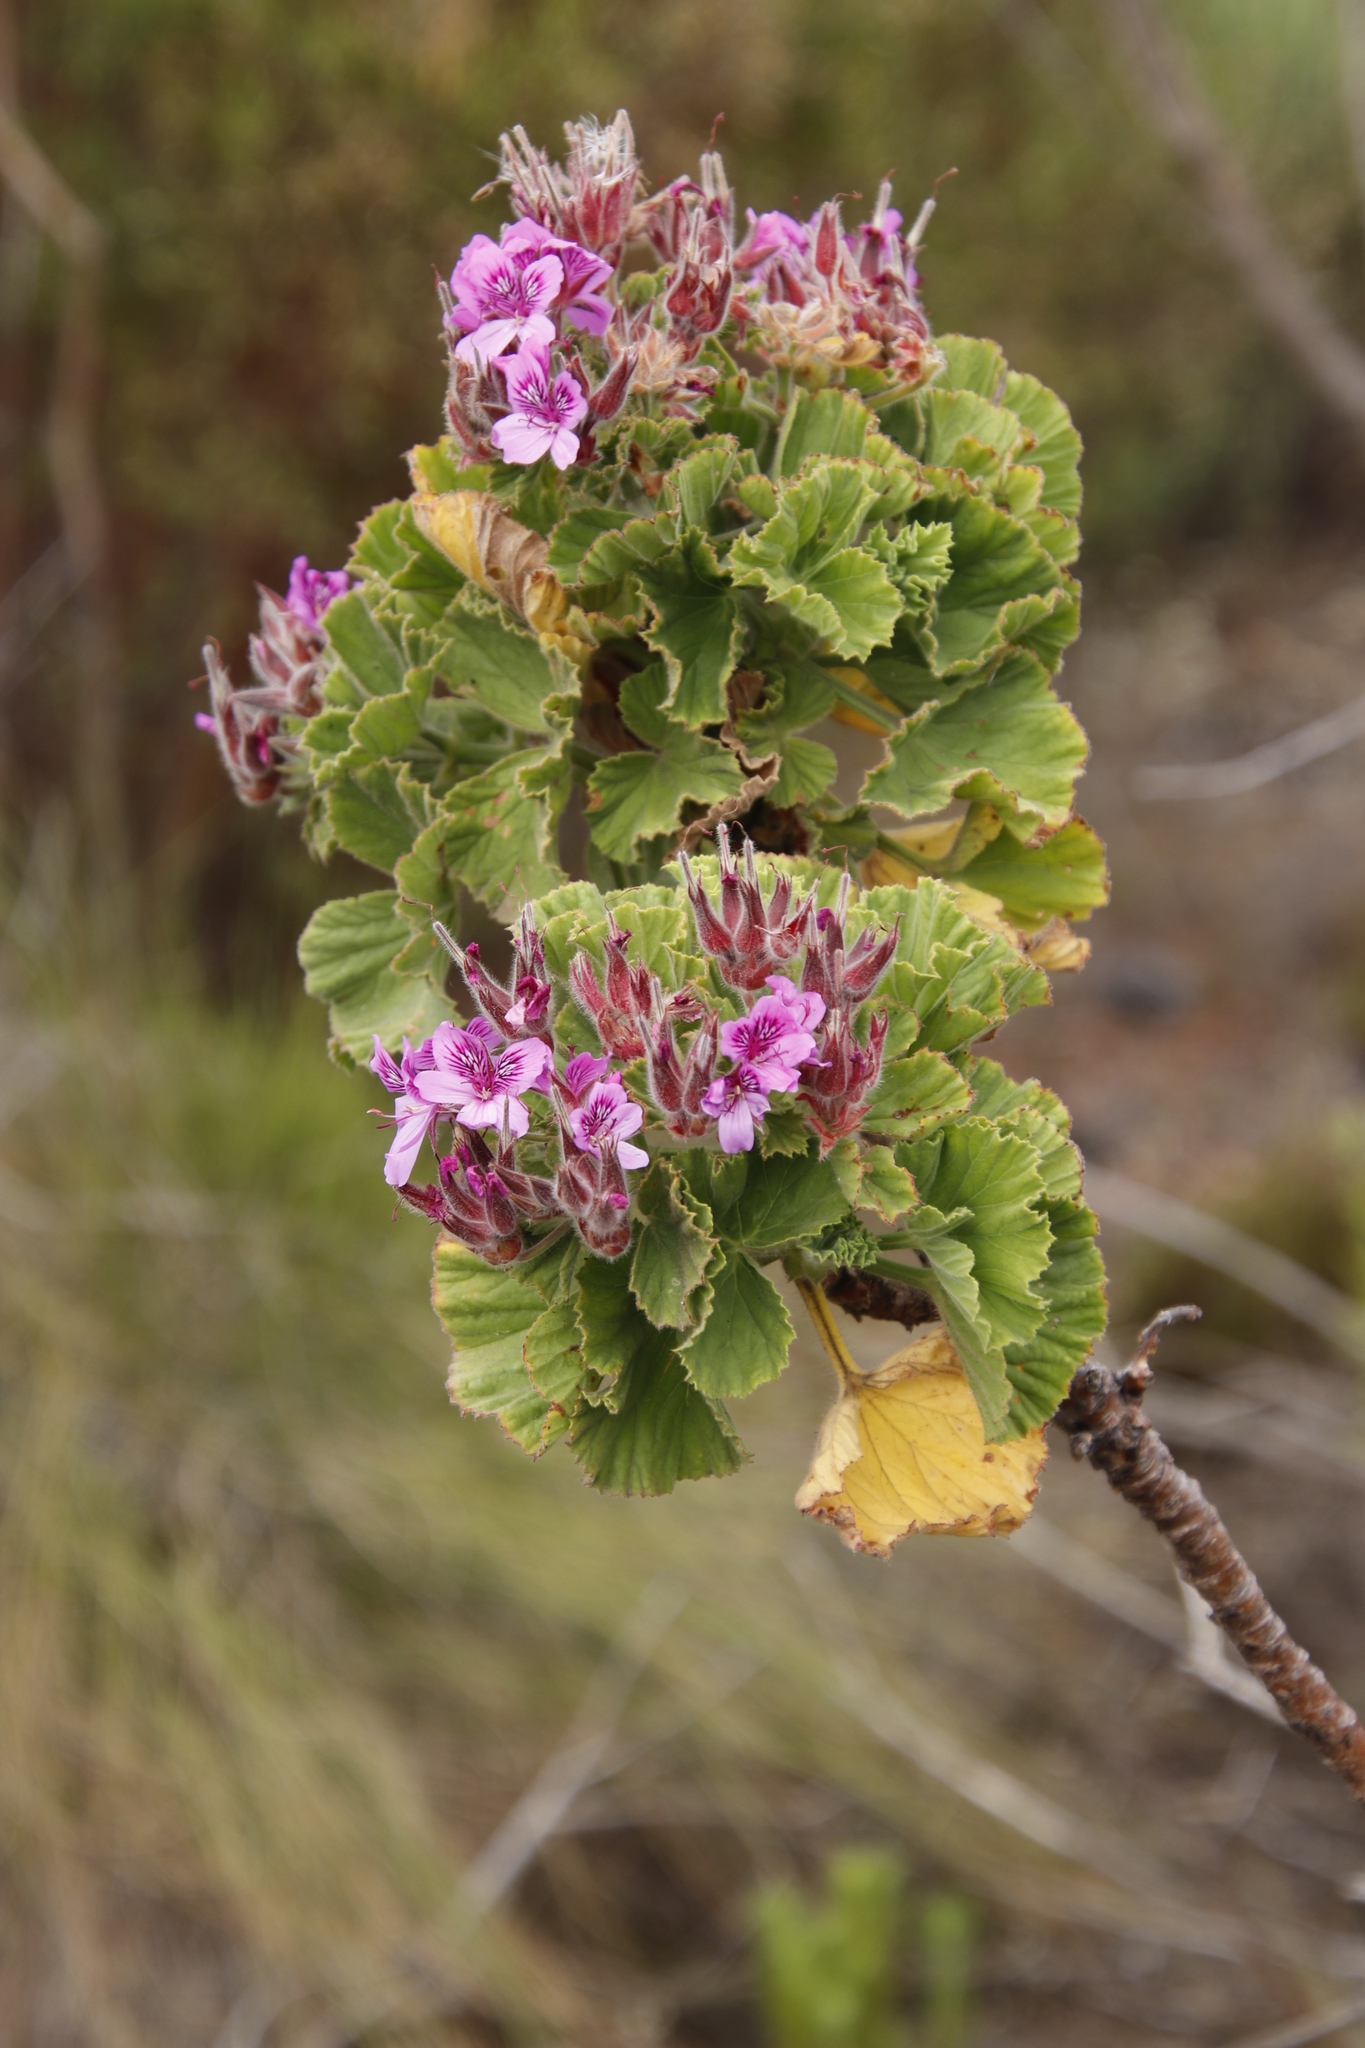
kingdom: Plantae
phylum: Tracheophyta
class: Magnoliopsida
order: Geraniales
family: Geraniaceae
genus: Pelargonium
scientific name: Pelargonium cucullatum
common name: Tree pelargonium
